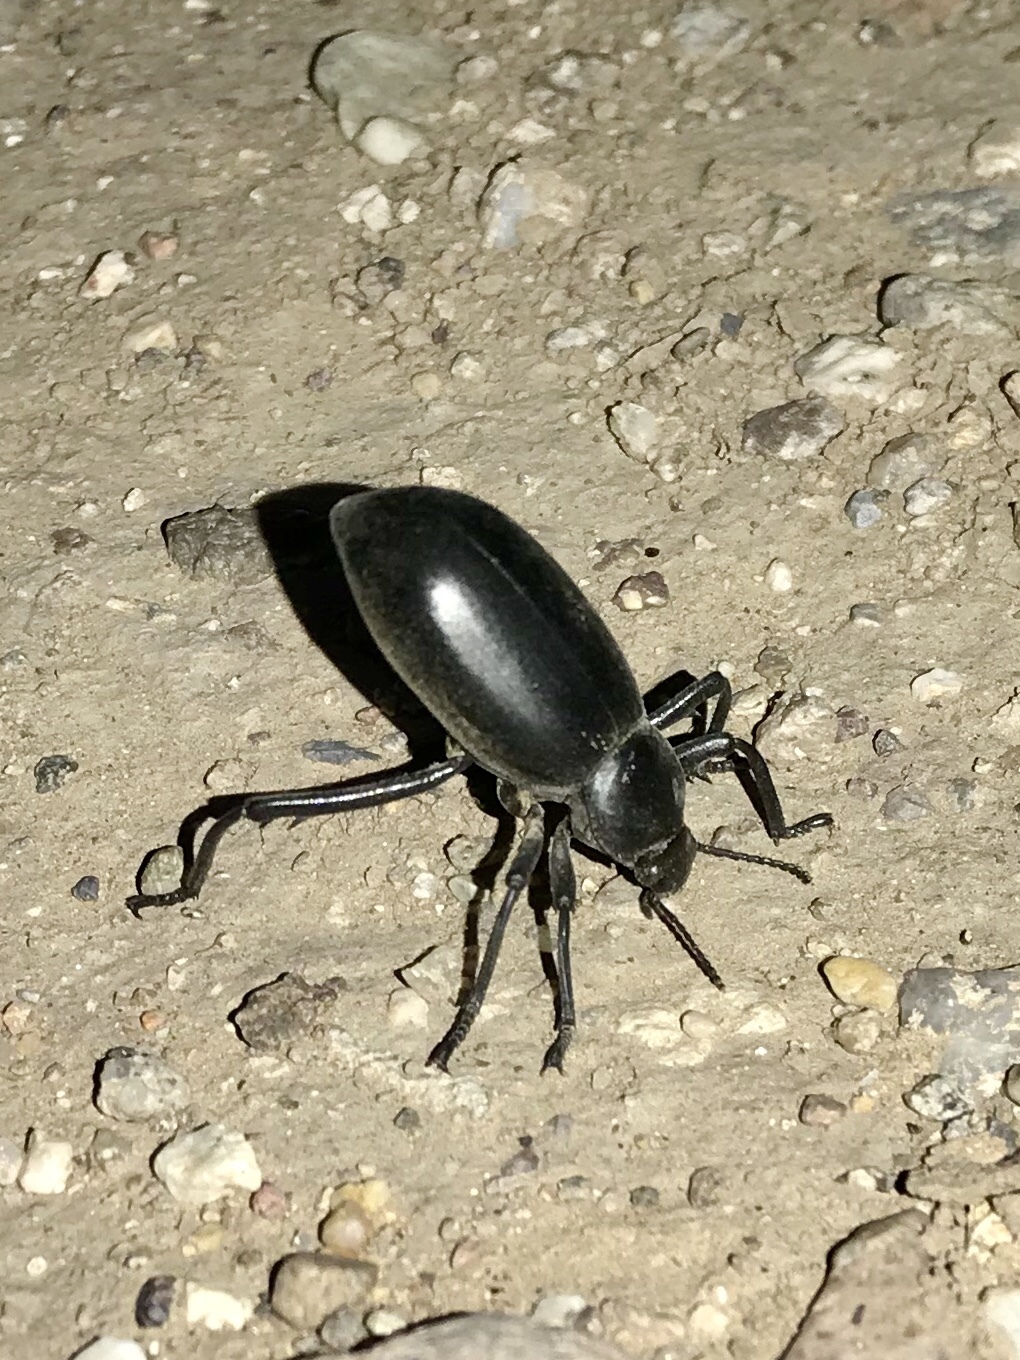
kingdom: Animalia
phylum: Arthropoda
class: Insecta
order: Coleoptera
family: Tenebrionidae
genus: Eleodes
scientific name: Eleodes armata
